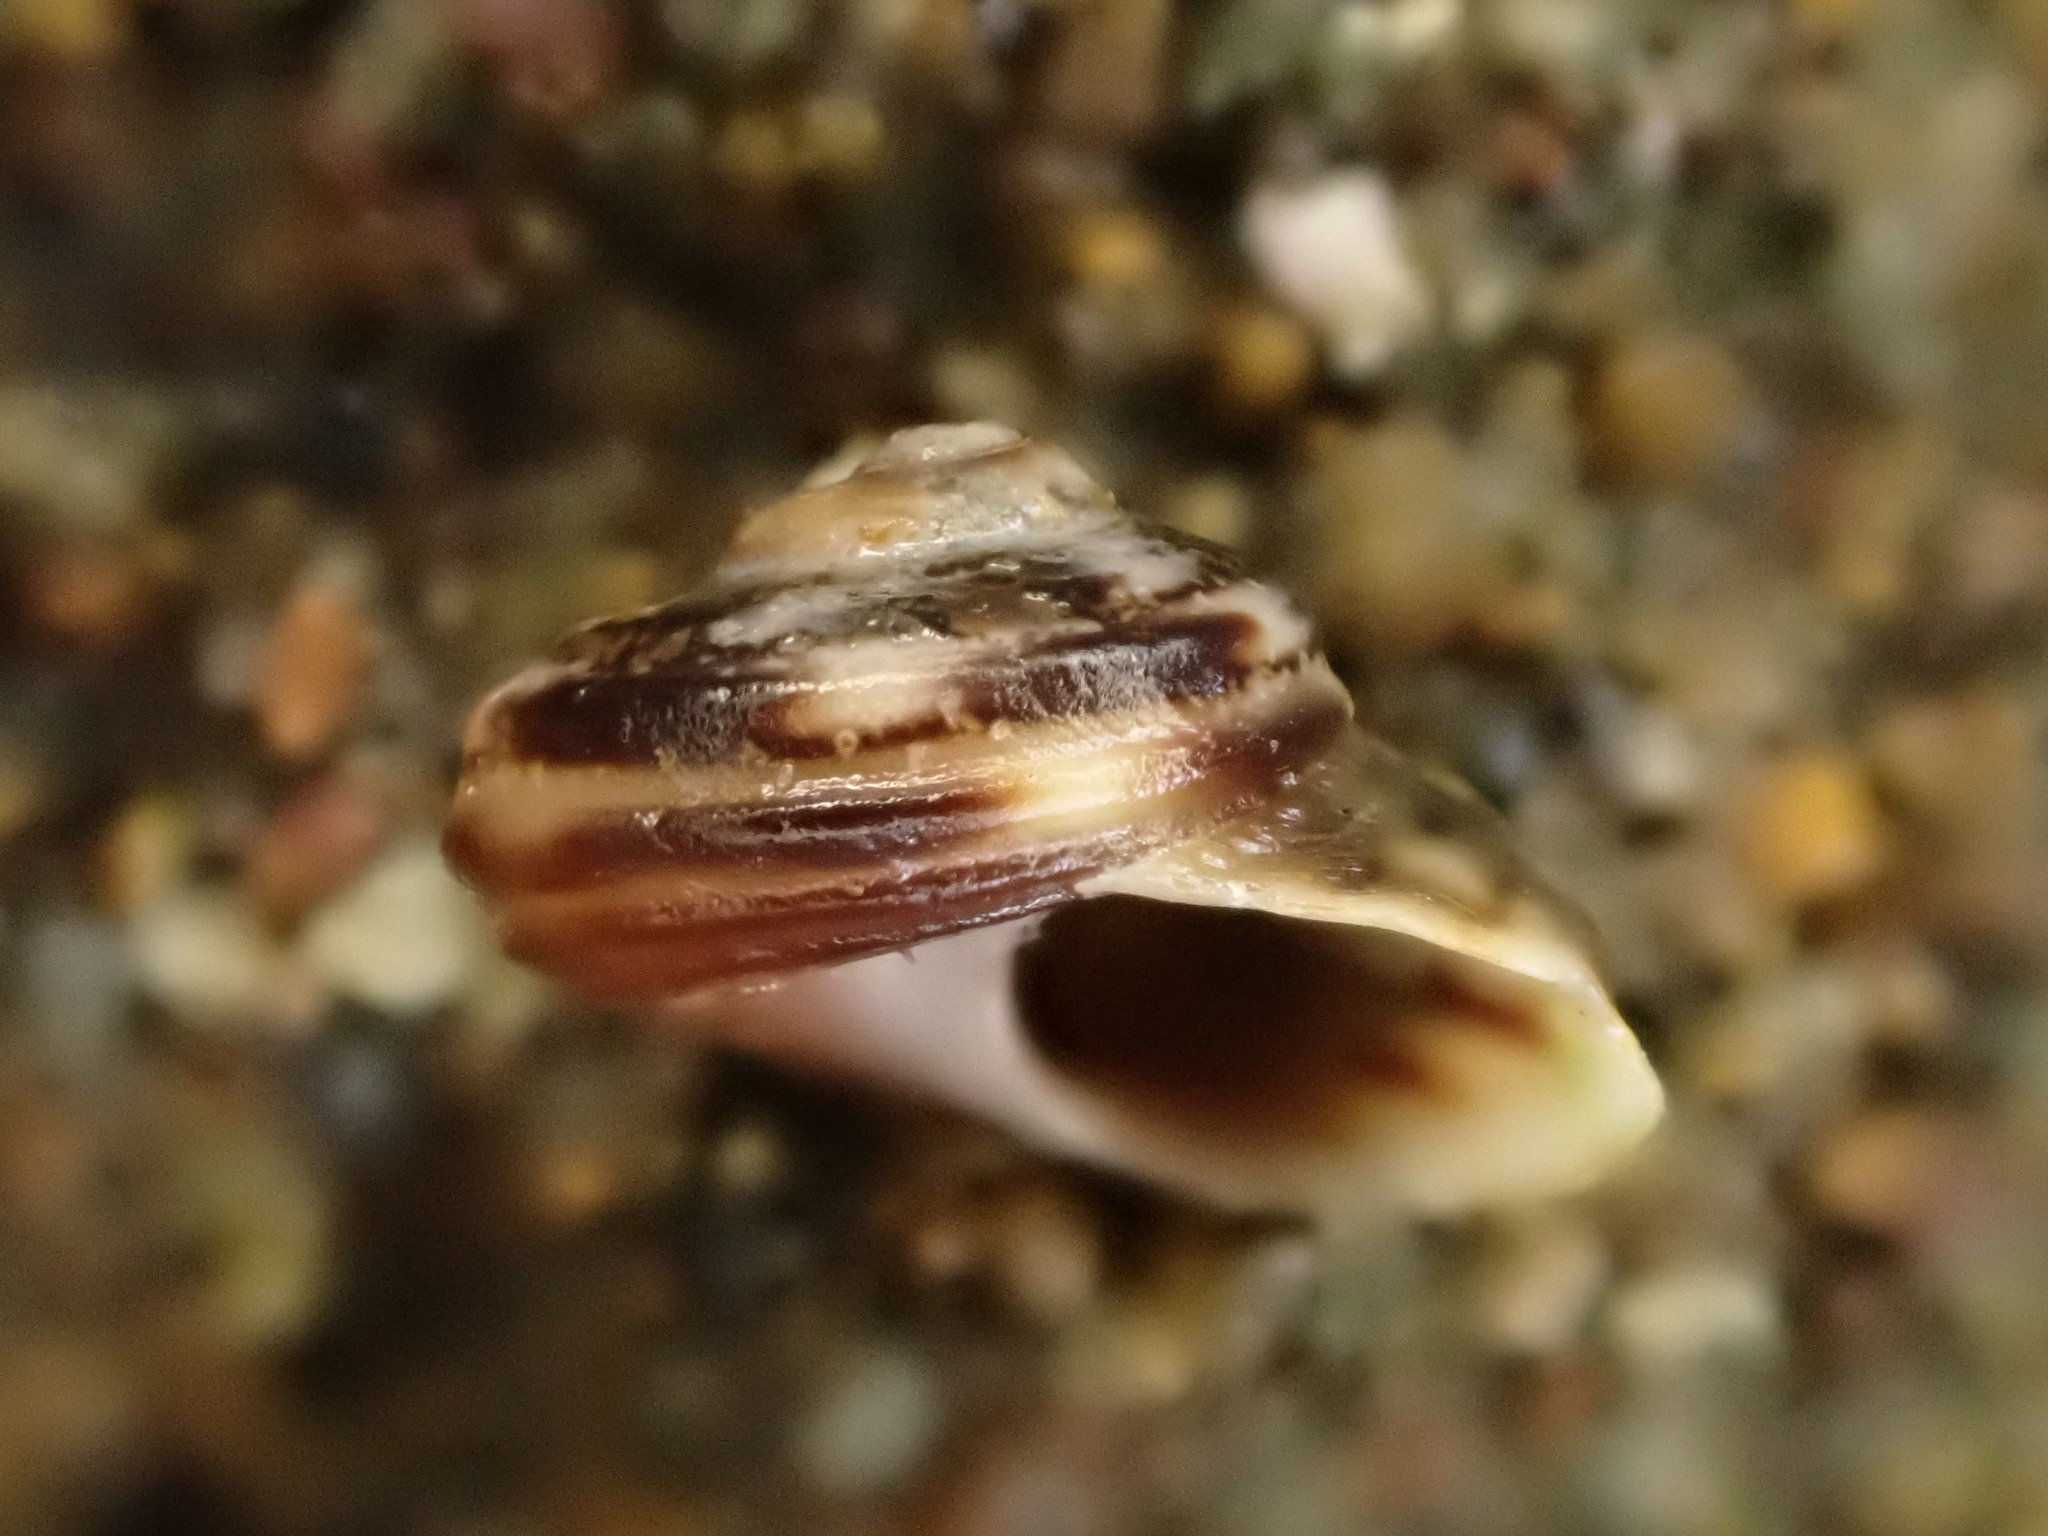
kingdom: Animalia
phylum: Mollusca
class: Gastropoda
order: Littorinimorpha
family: Littorinidae
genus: Risellopsis
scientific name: Risellopsis varia
